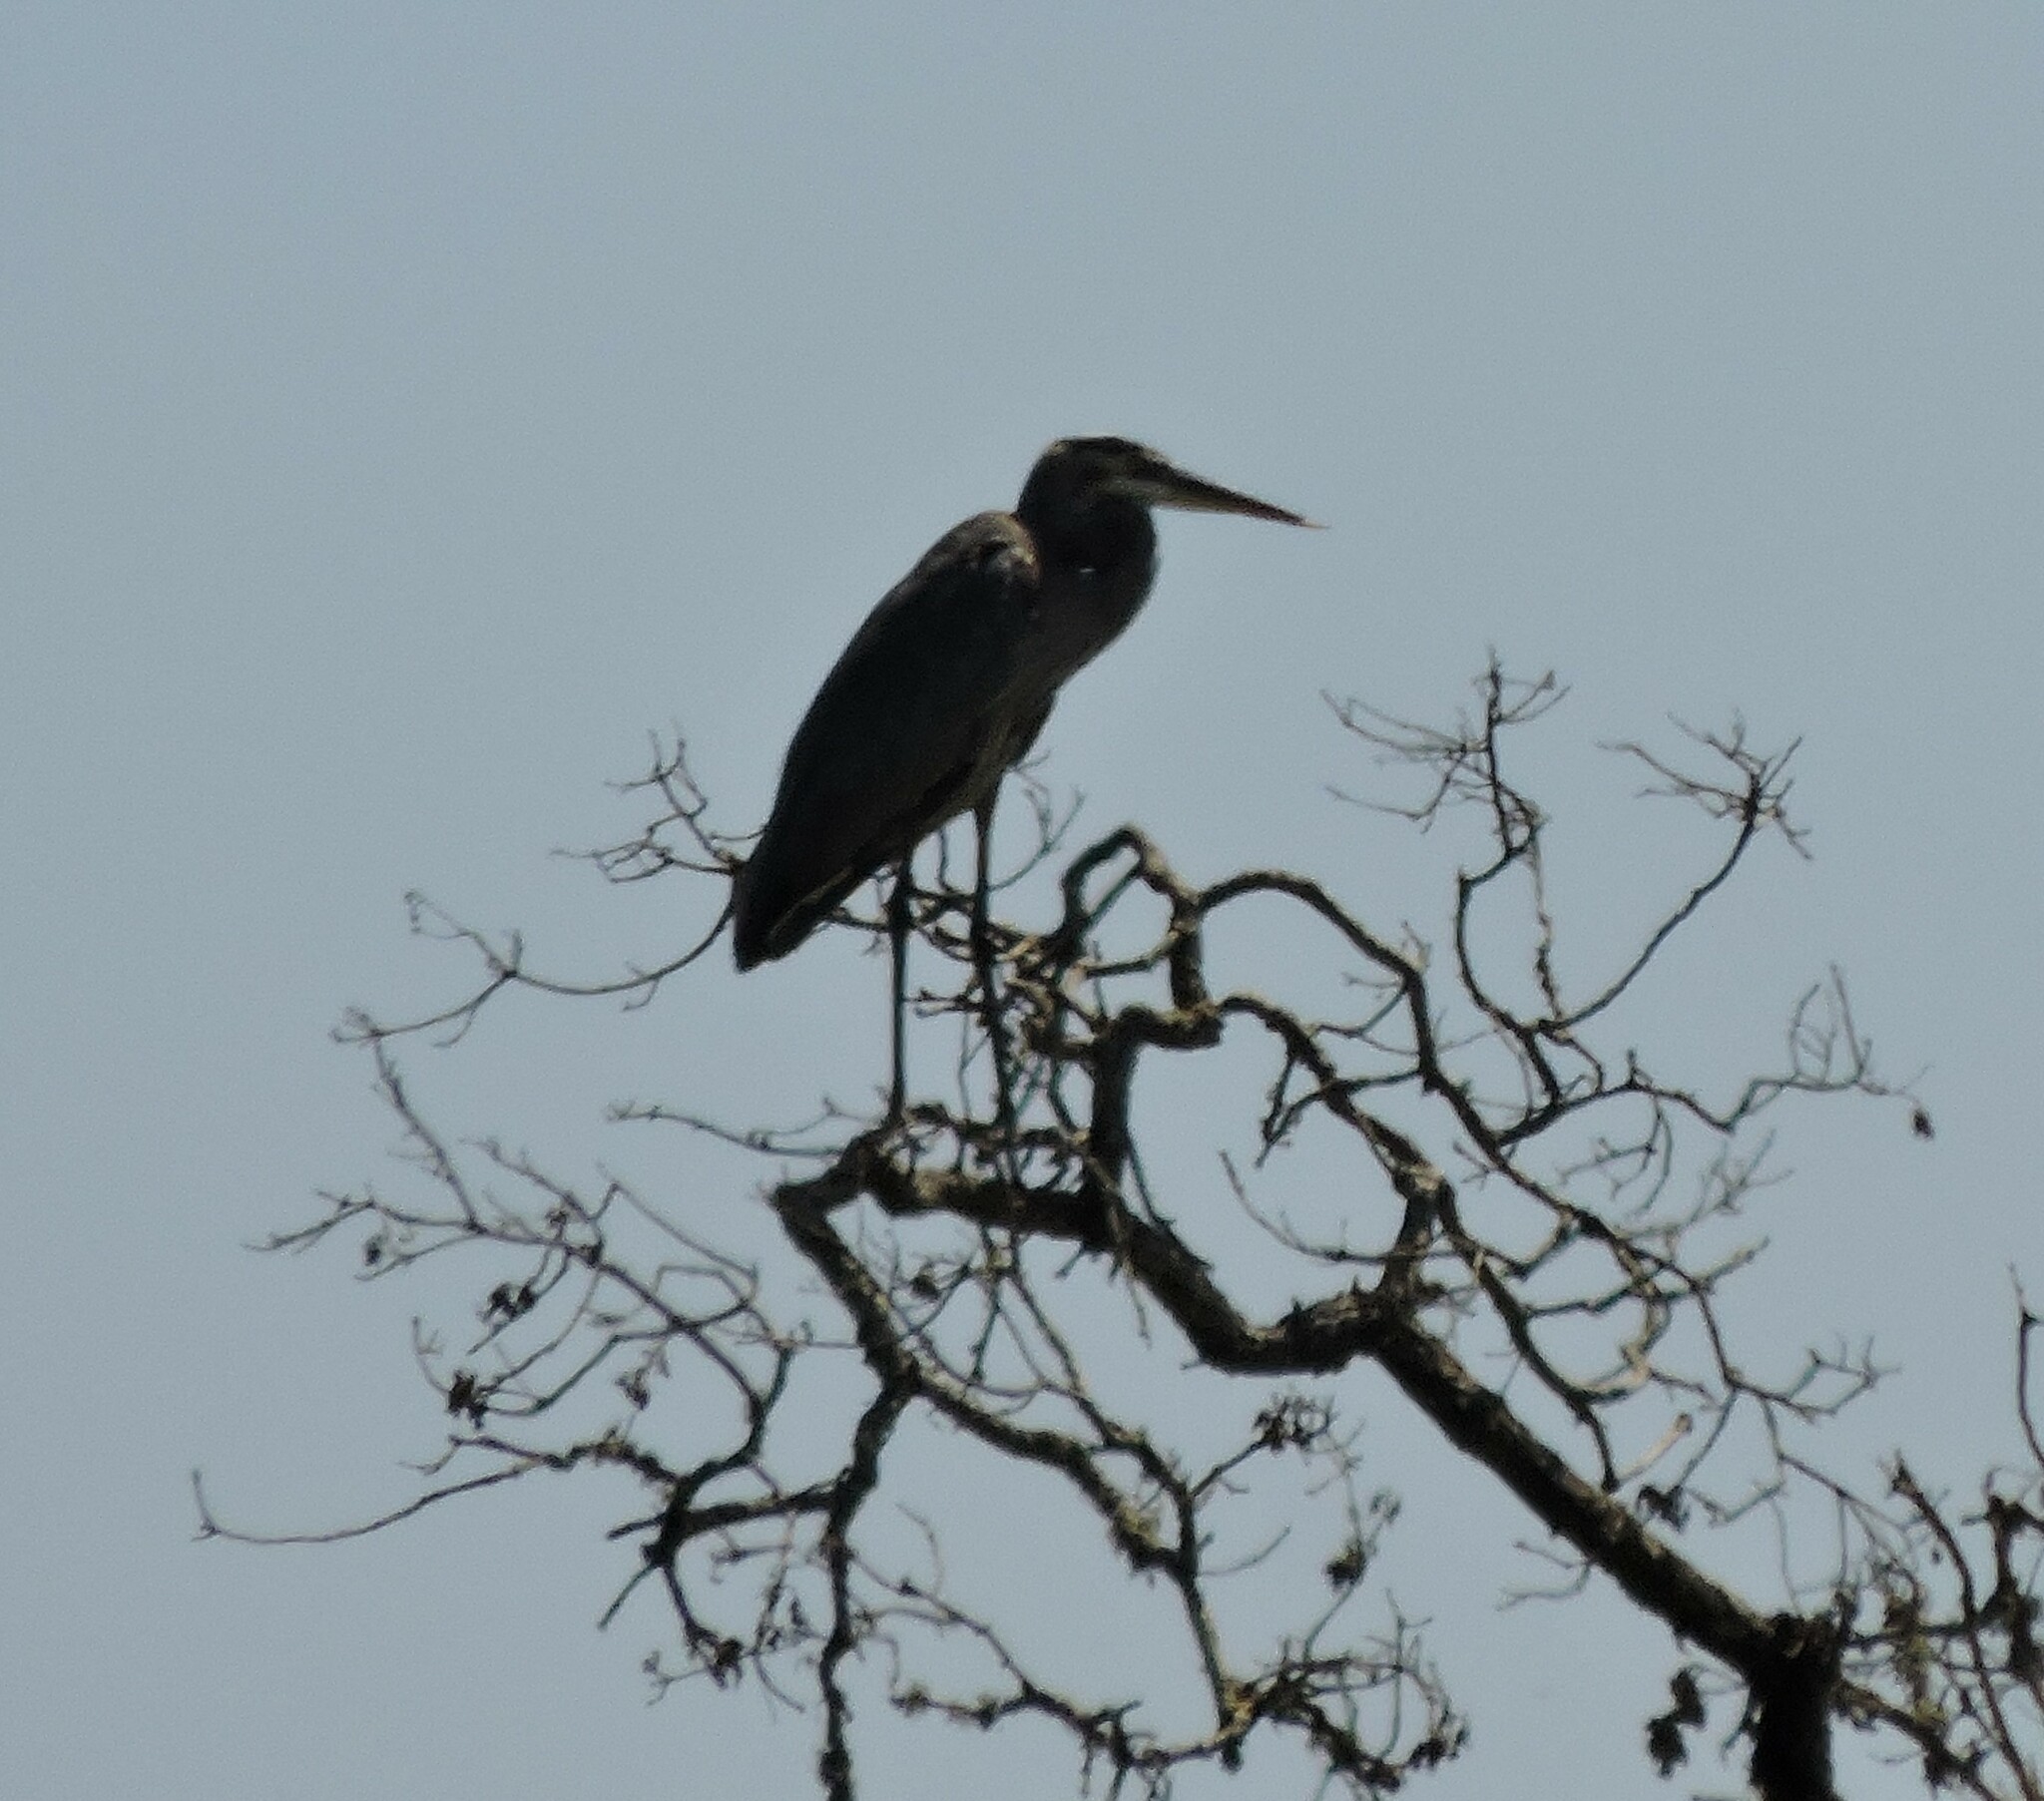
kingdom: Animalia
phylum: Chordata
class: Aves
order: Pelecaniformes
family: Ardeidae
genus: Ardea
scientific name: Ardea herodias
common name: Great blue heron
